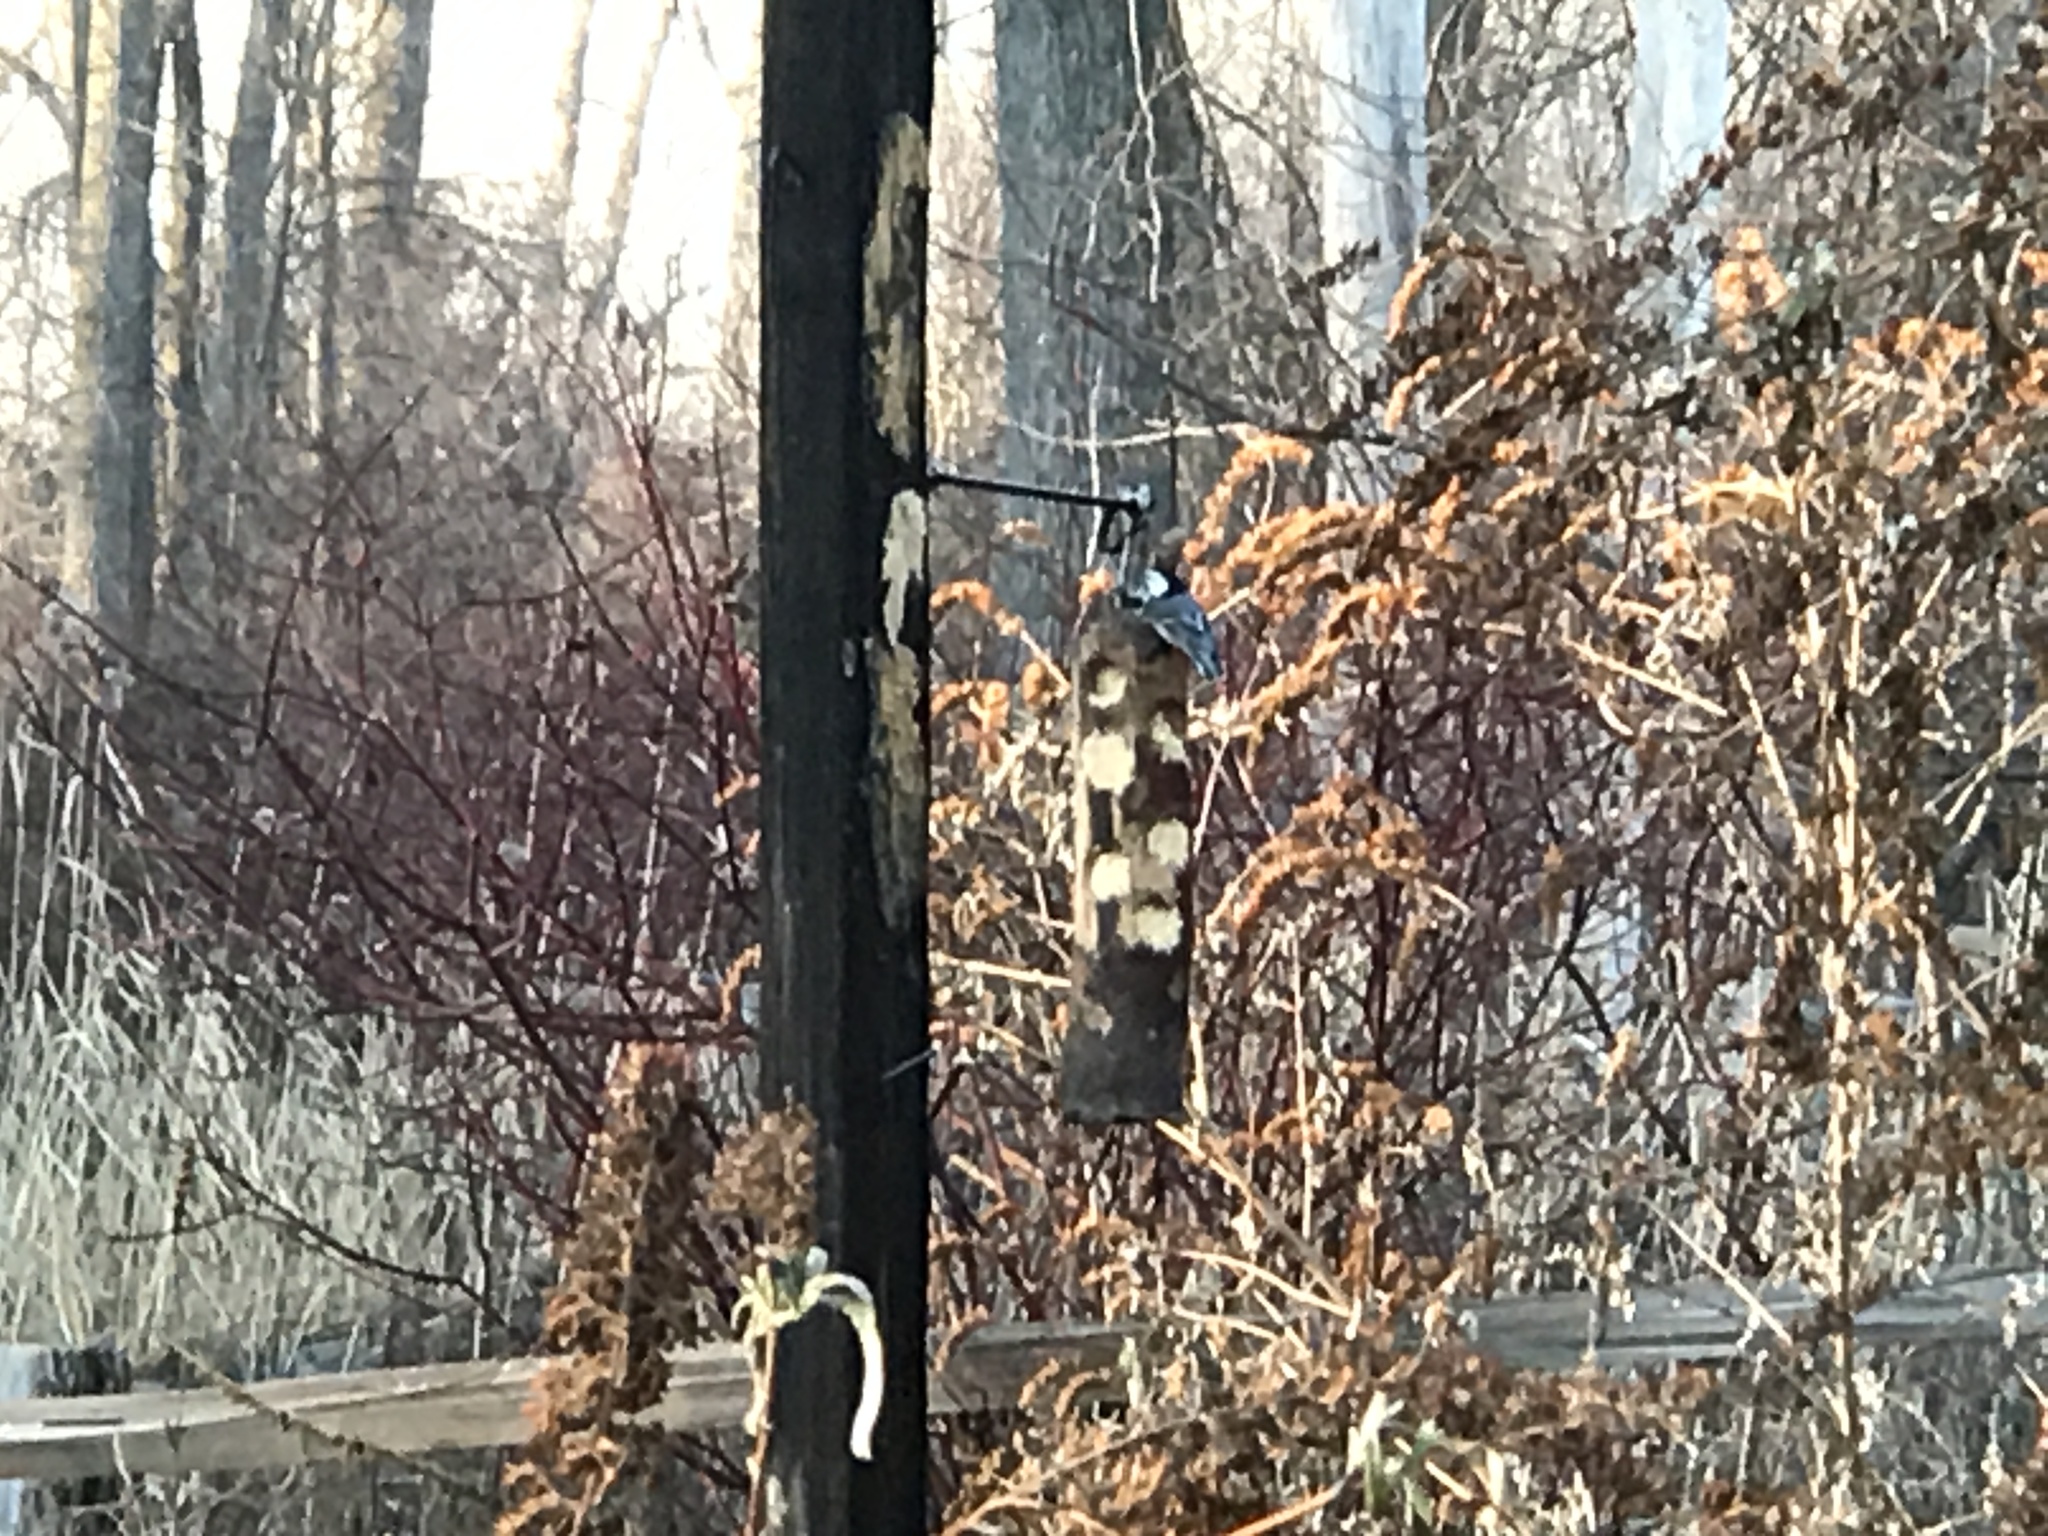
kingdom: Animalia
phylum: Chordata
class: Aves
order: Passeriformes
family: Sittidae
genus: Sitta
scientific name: Sitta carolinensis
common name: White-breasted nuthatch
